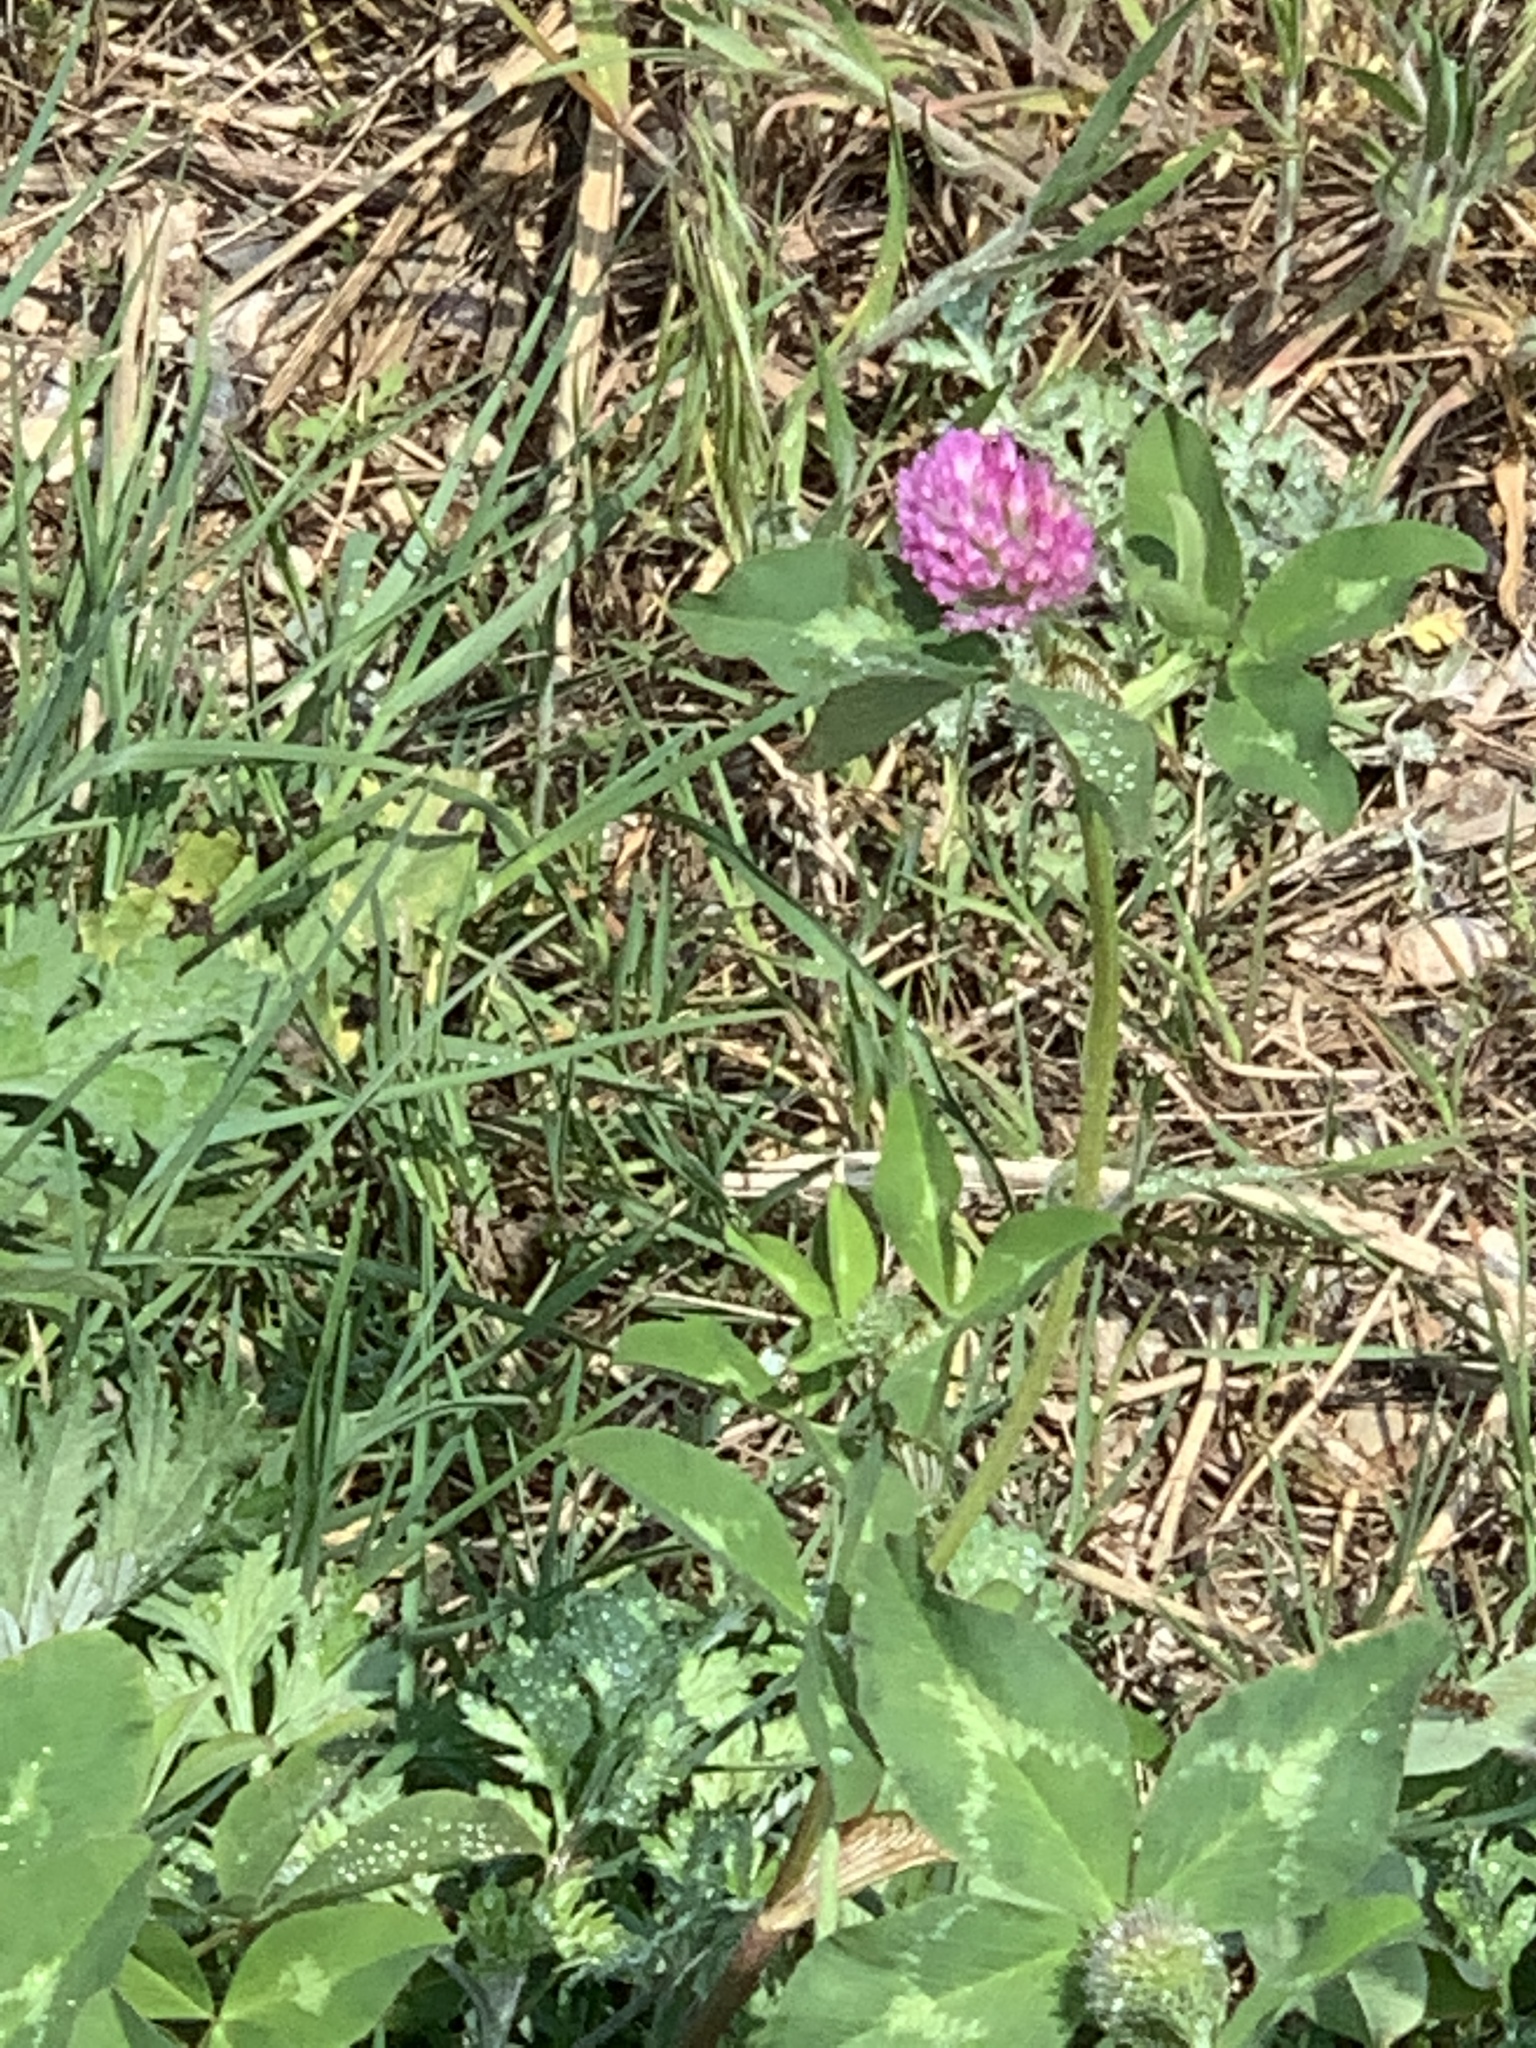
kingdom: Plantae
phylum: Tracheophyta
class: Magnoliopsida
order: Fabales
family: Fabaceae
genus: Trifolium
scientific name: Trifolium pratense
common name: Red clover
